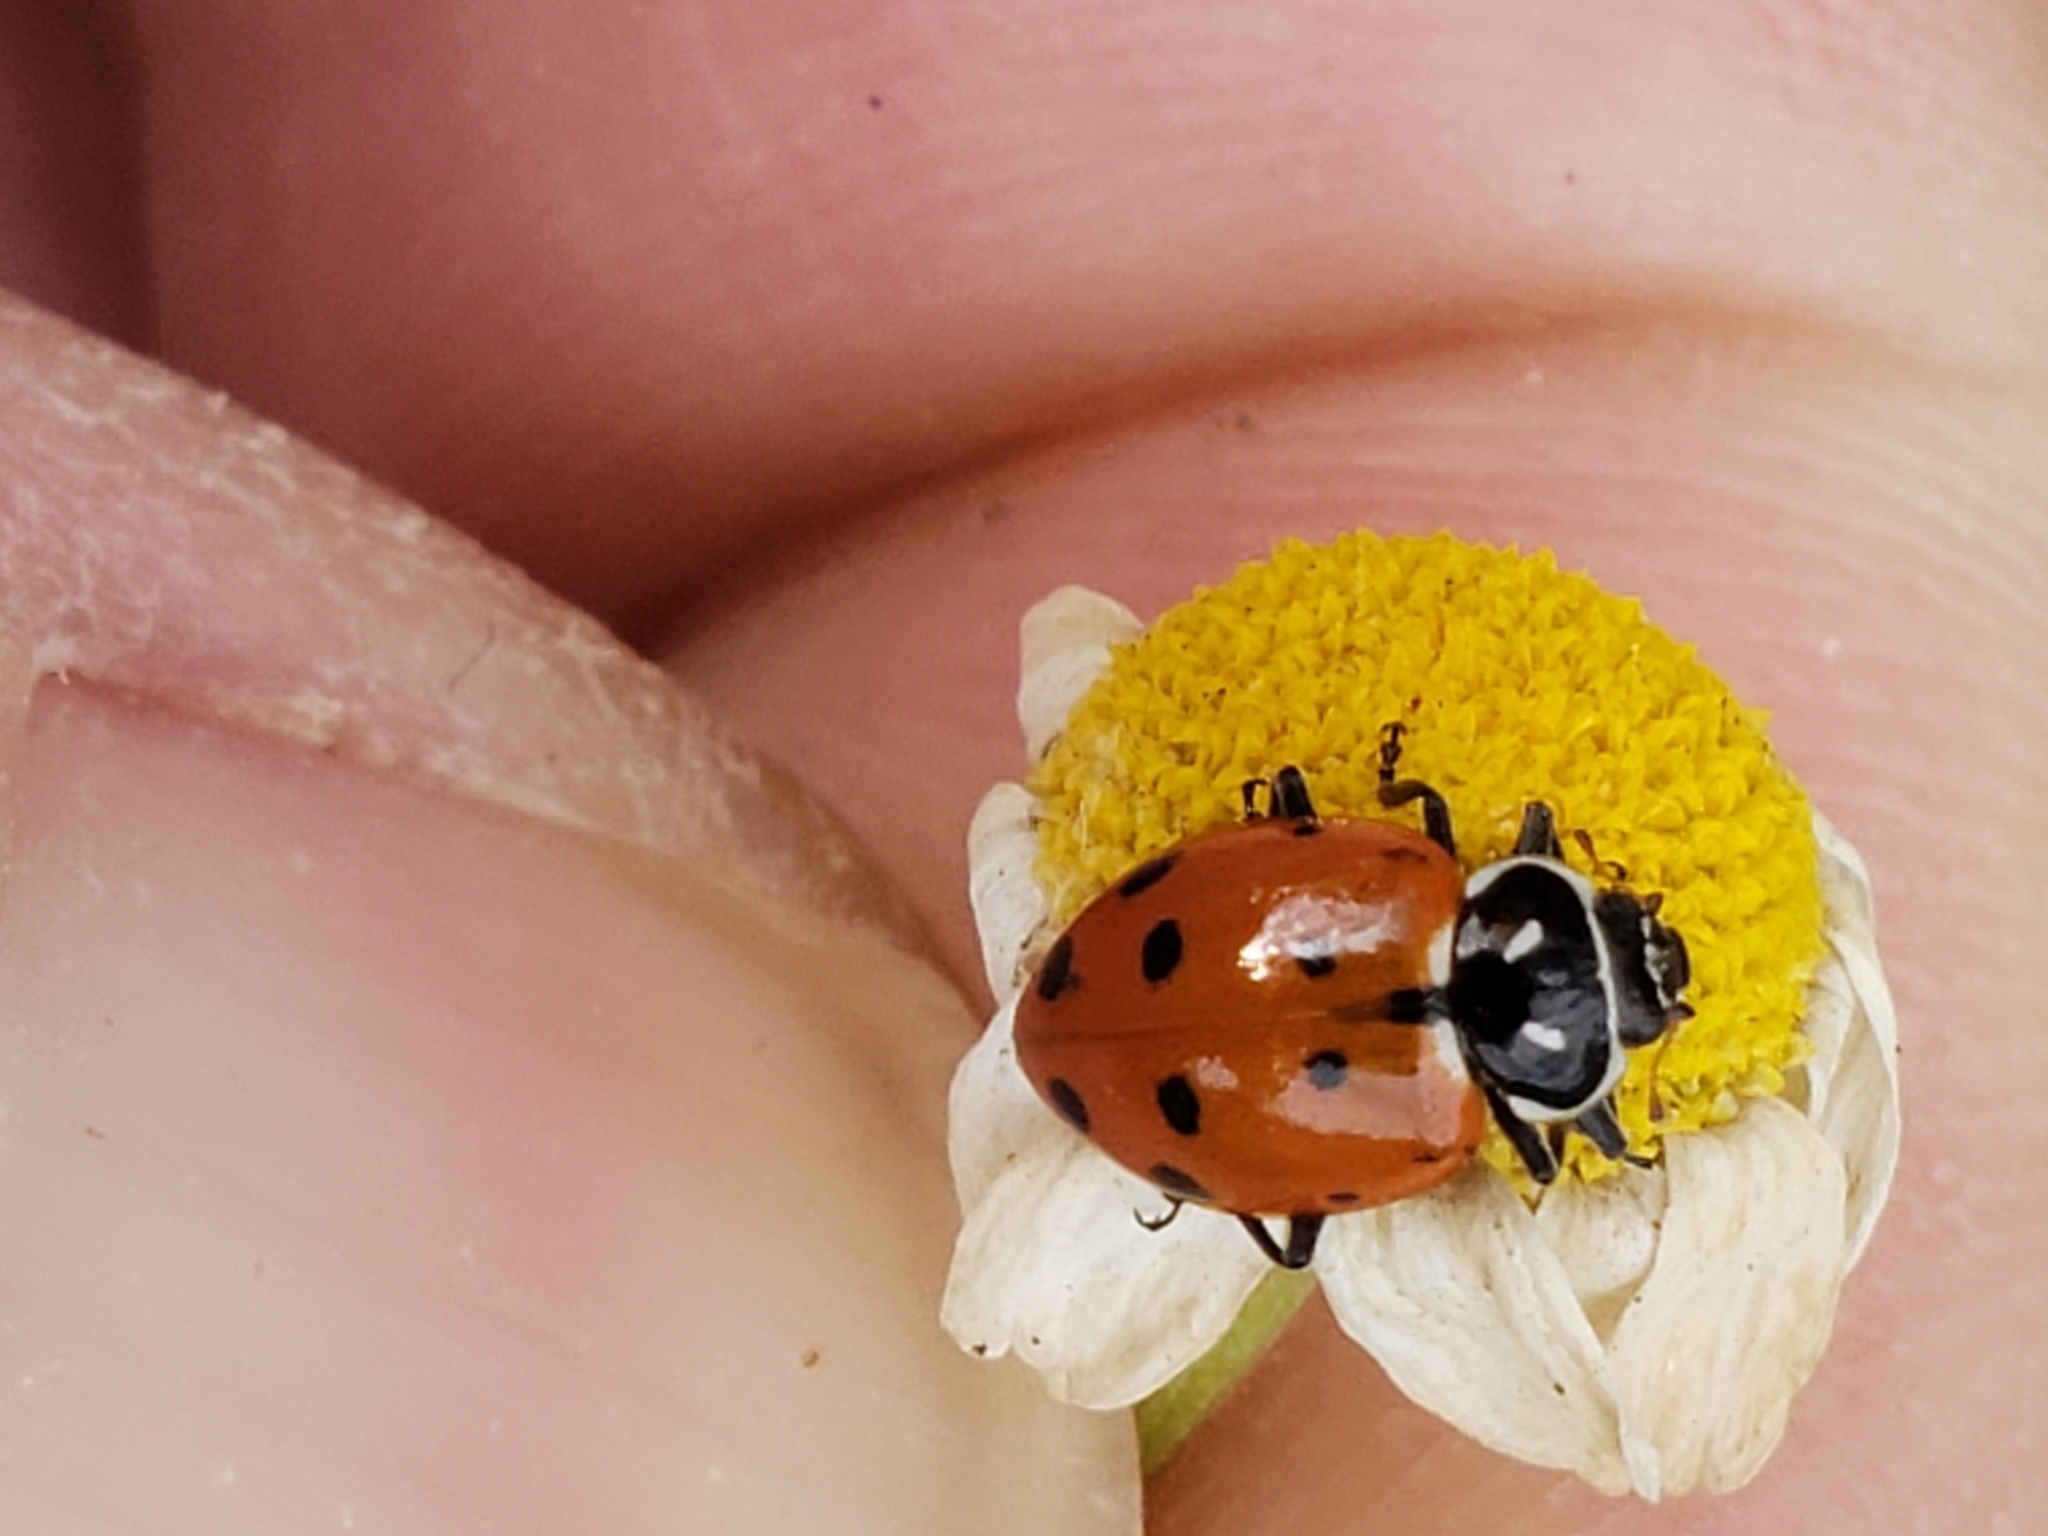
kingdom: Animalia
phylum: Arthropoda
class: Insecta
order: Coleoptera
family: Coccinellidae
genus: Hippodamia
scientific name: Hippodamia convergens
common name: Convergent lady beetle
